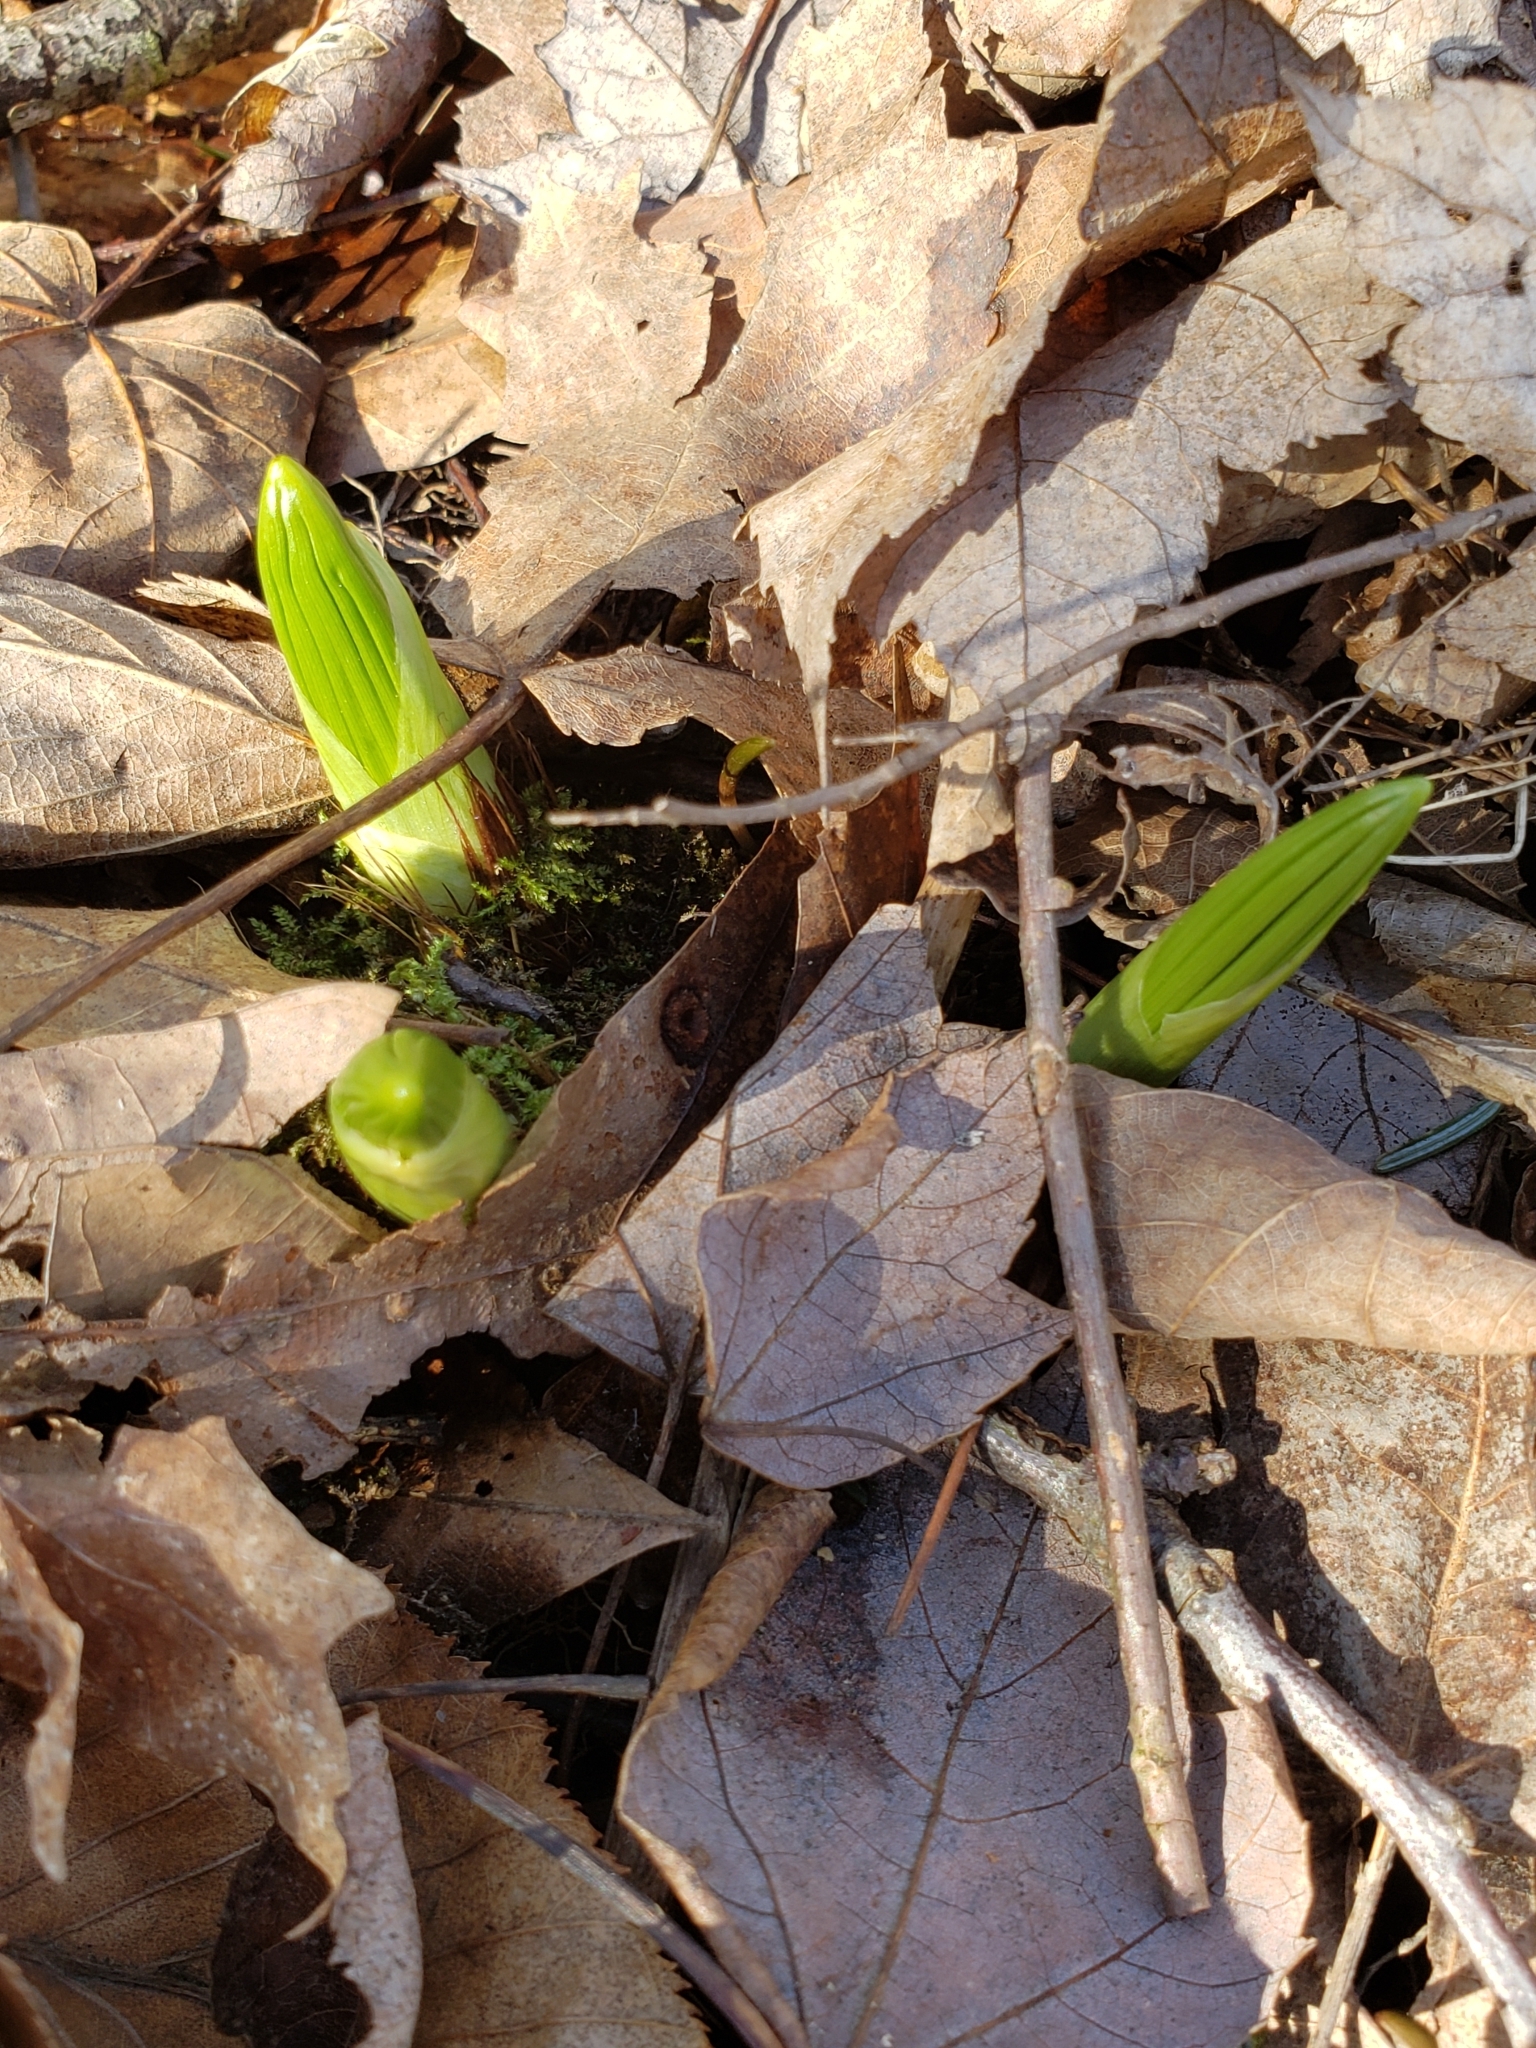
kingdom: Plantae
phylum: Tracheophyta
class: Liliopsida
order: Liliales
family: Melanthiaceae
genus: Veratrum
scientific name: Veratrum viride
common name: American false hellebore
